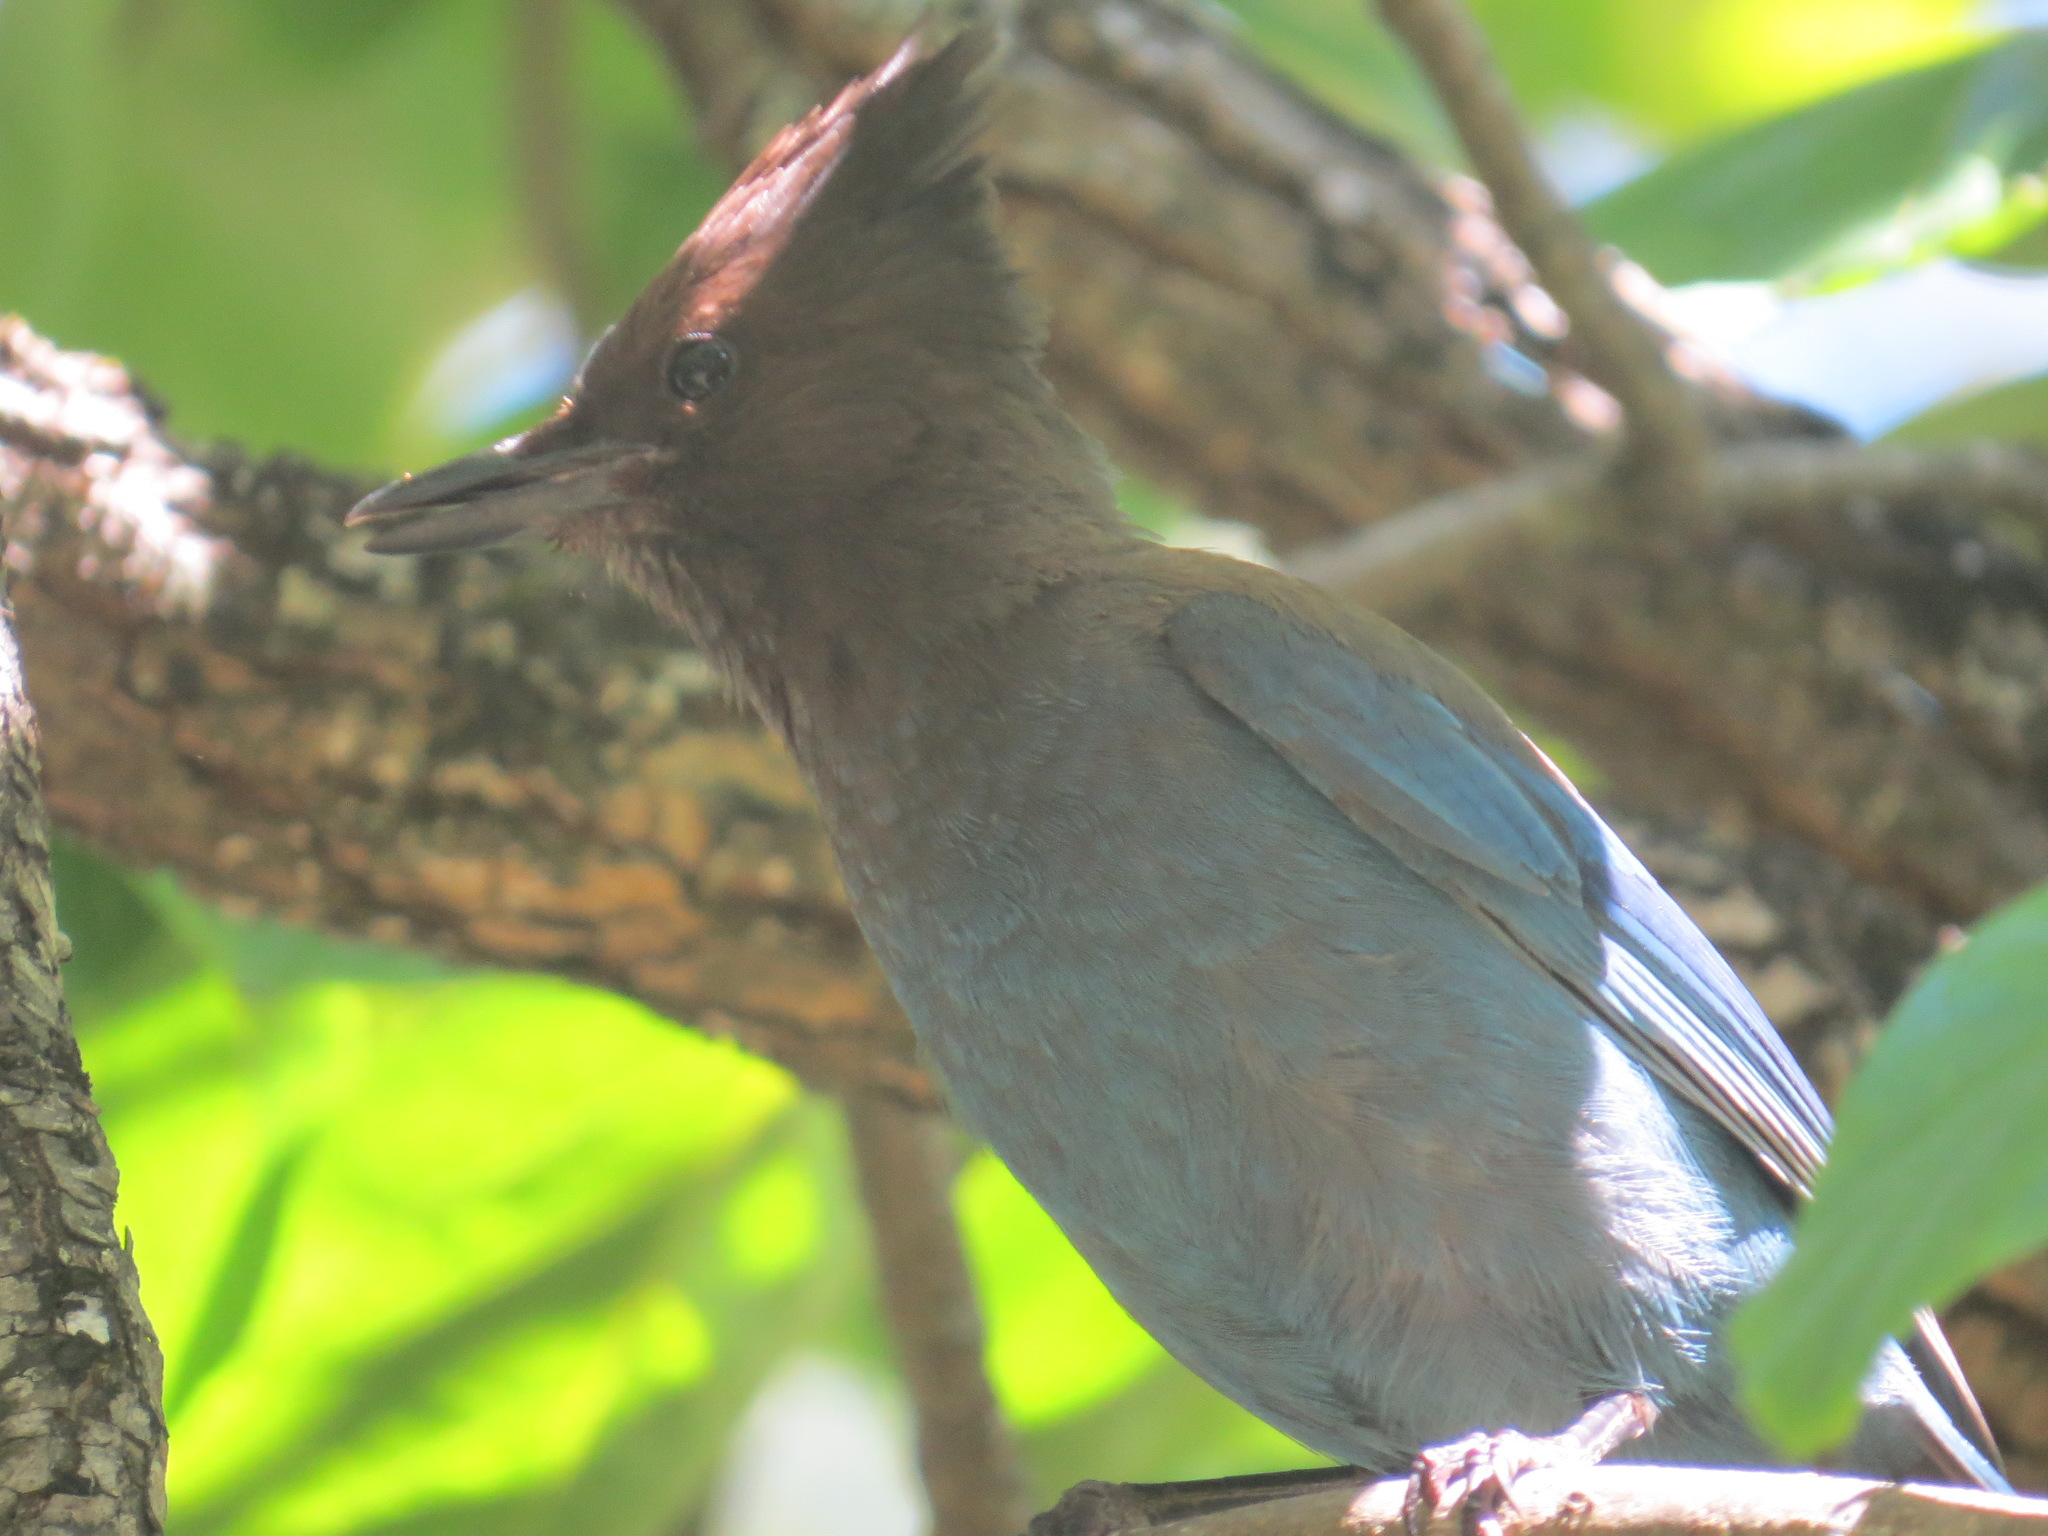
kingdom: Animalia
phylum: Chordata
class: Aves
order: Passeriformes
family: Corvidae
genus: Cyanocitta
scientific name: Cyanocitta stelleri
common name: Steller's jay
